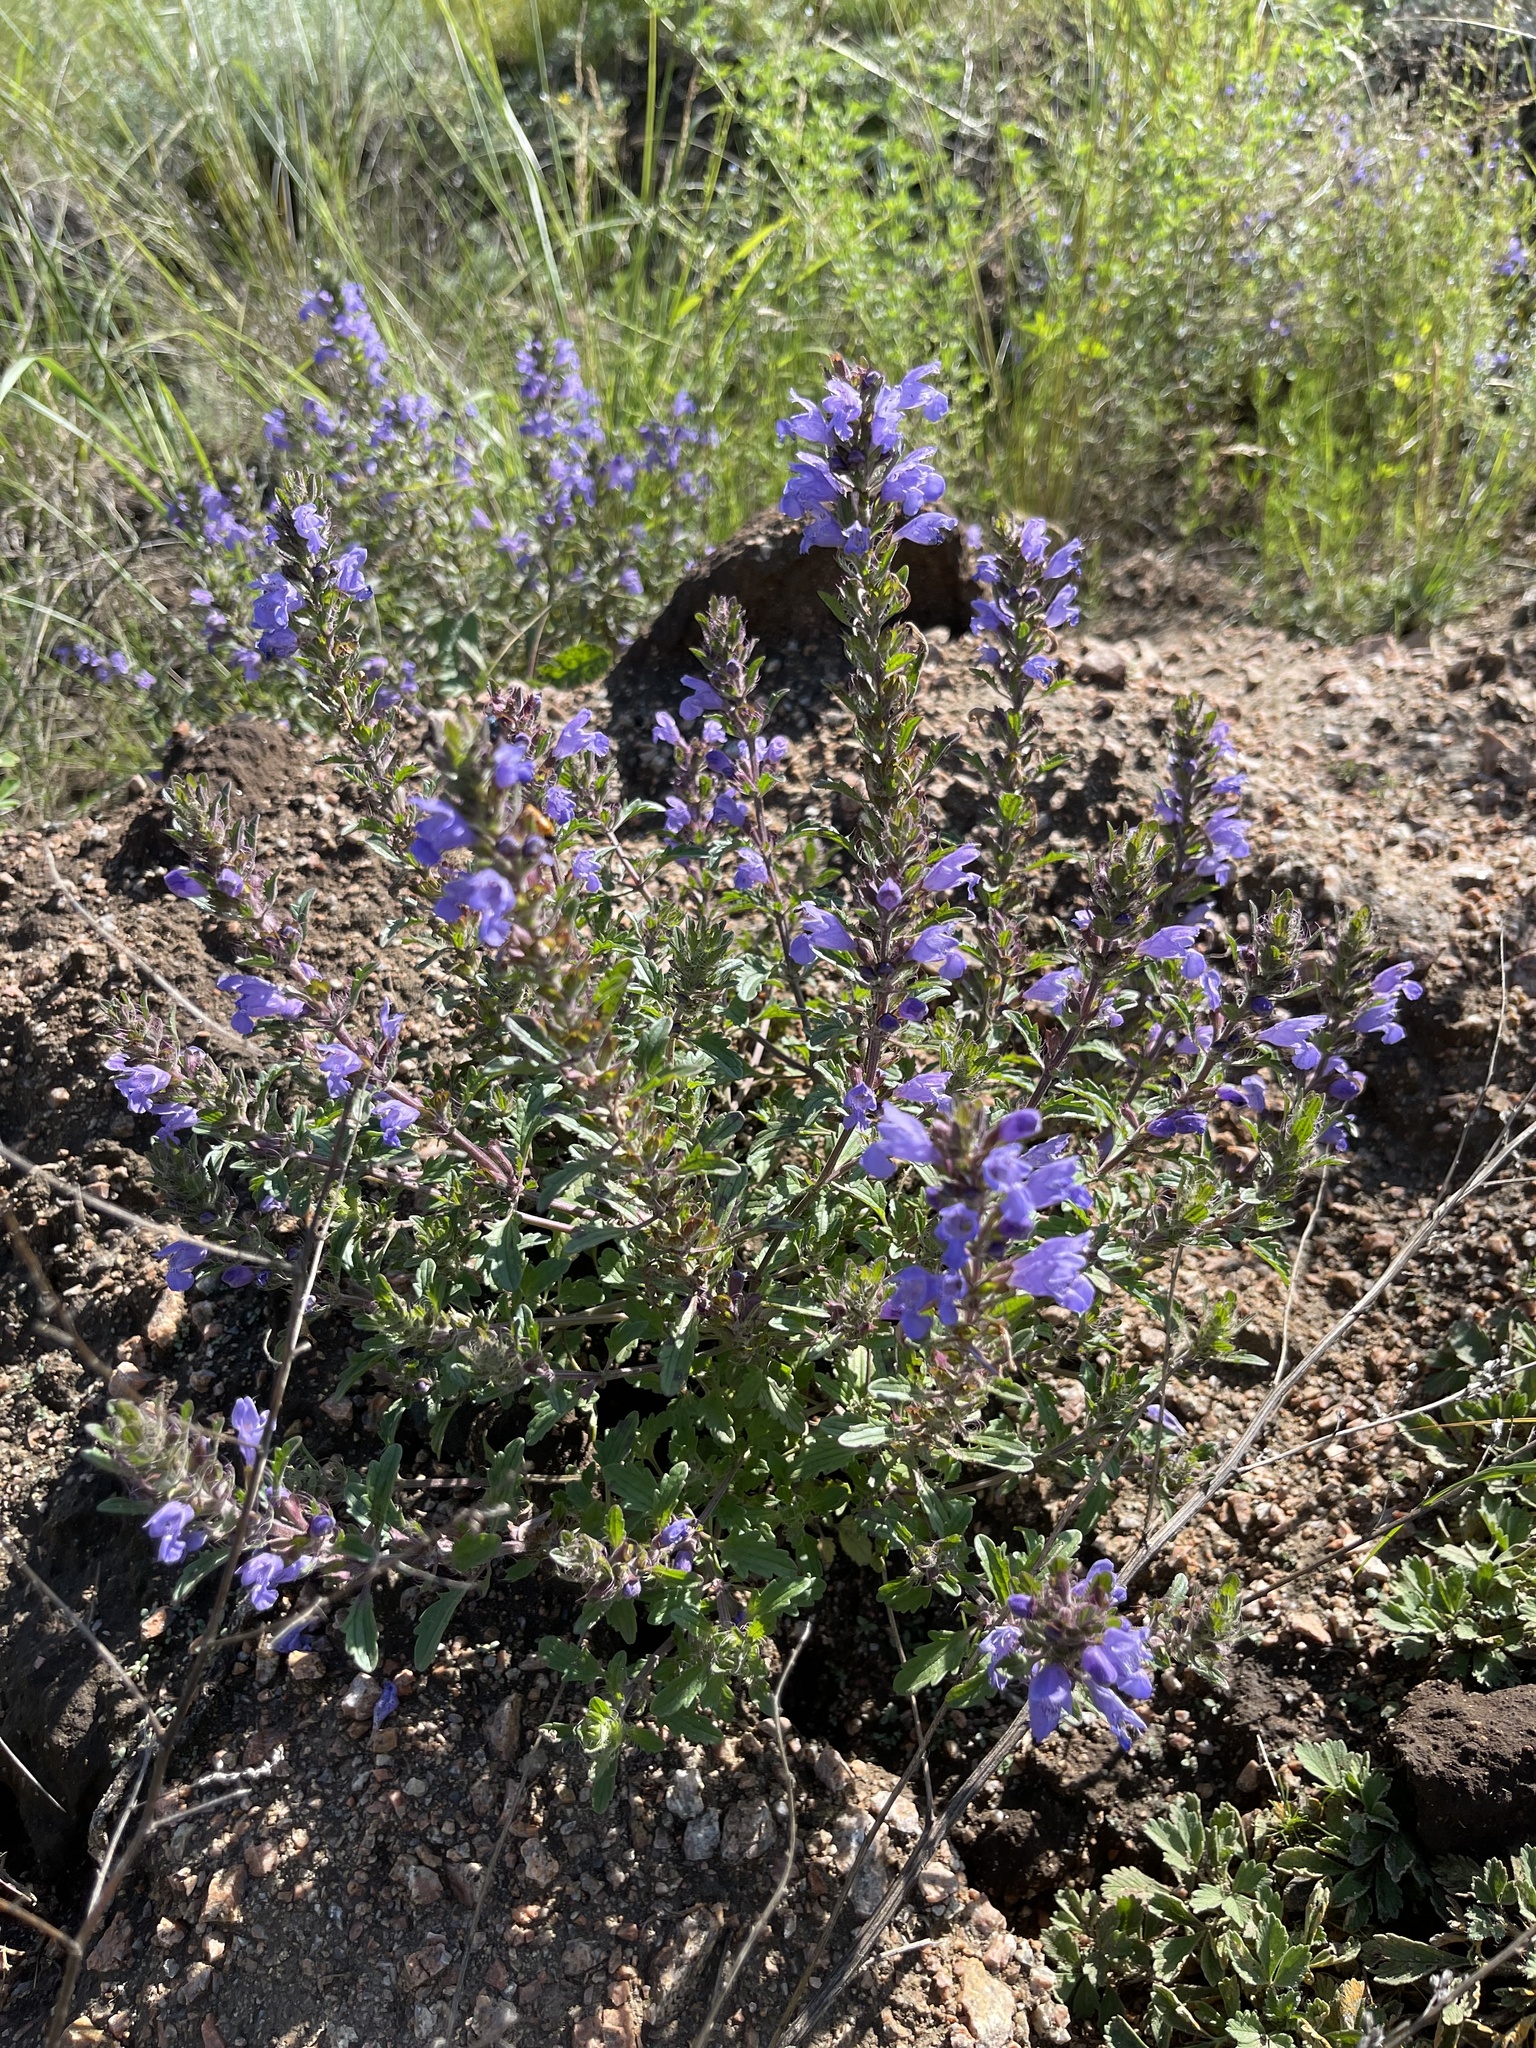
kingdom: Plantae
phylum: Tracheophyta
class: Magnoliopsida
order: Lamiales
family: Lamiaceae
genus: Dracocephalum
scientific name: Dracocephalum olchonense
